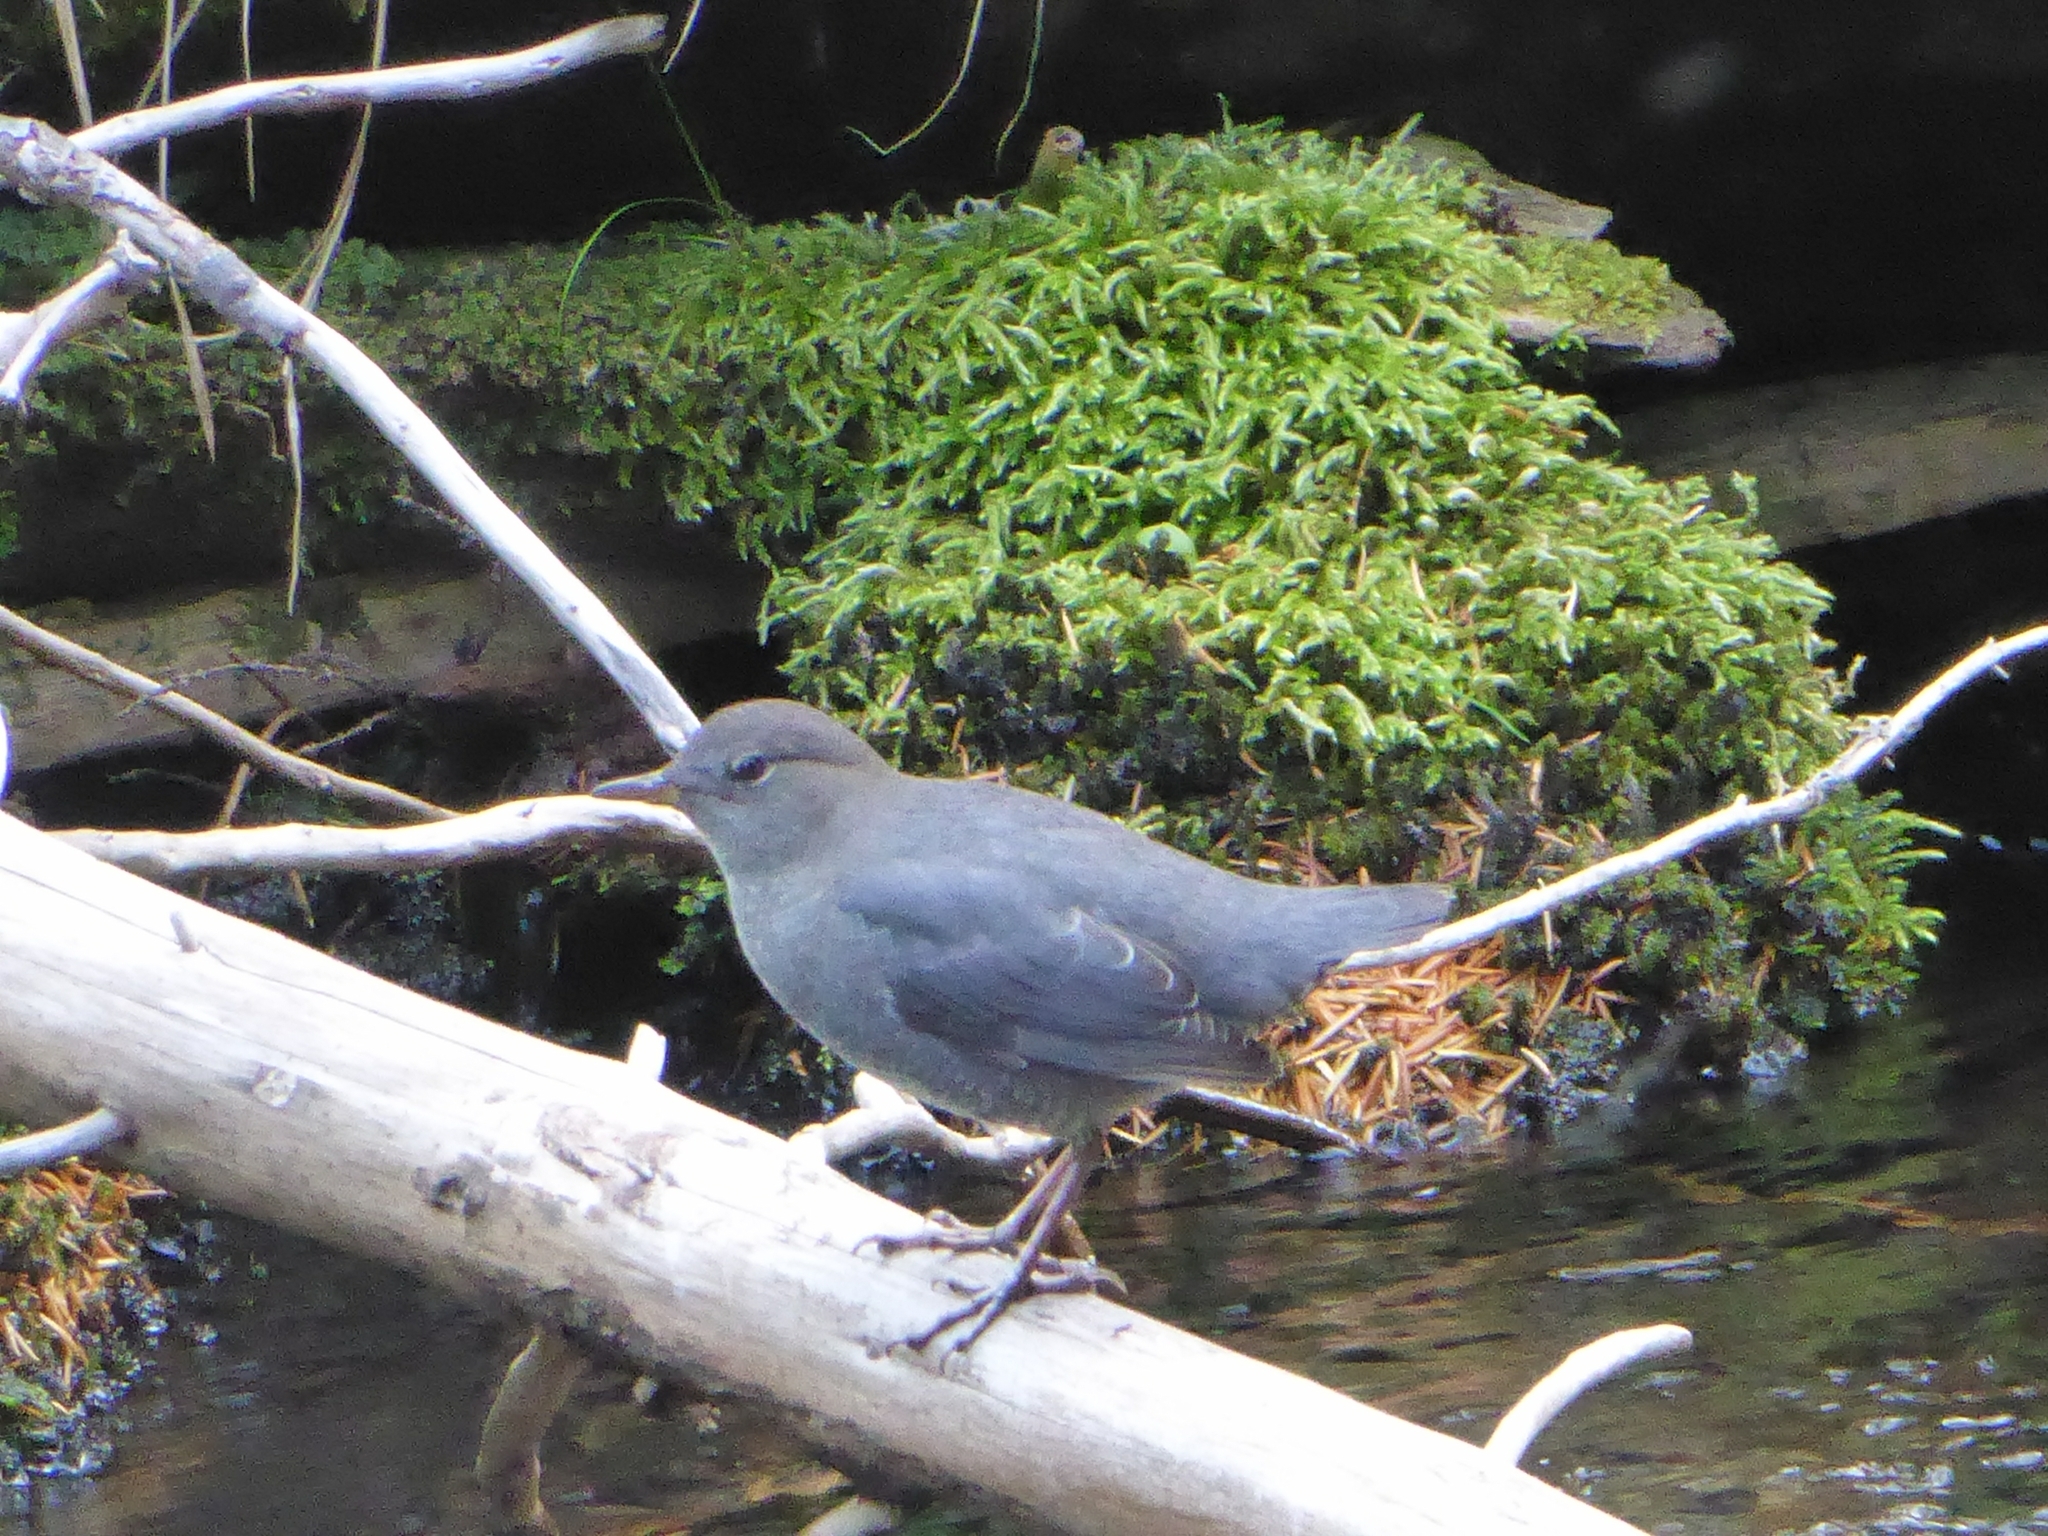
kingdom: Animalia
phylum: Chordata
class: Aves
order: Passeriformes
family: Cinclidae
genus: Cinclus
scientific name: Cinclus mexicanus
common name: American dipper
